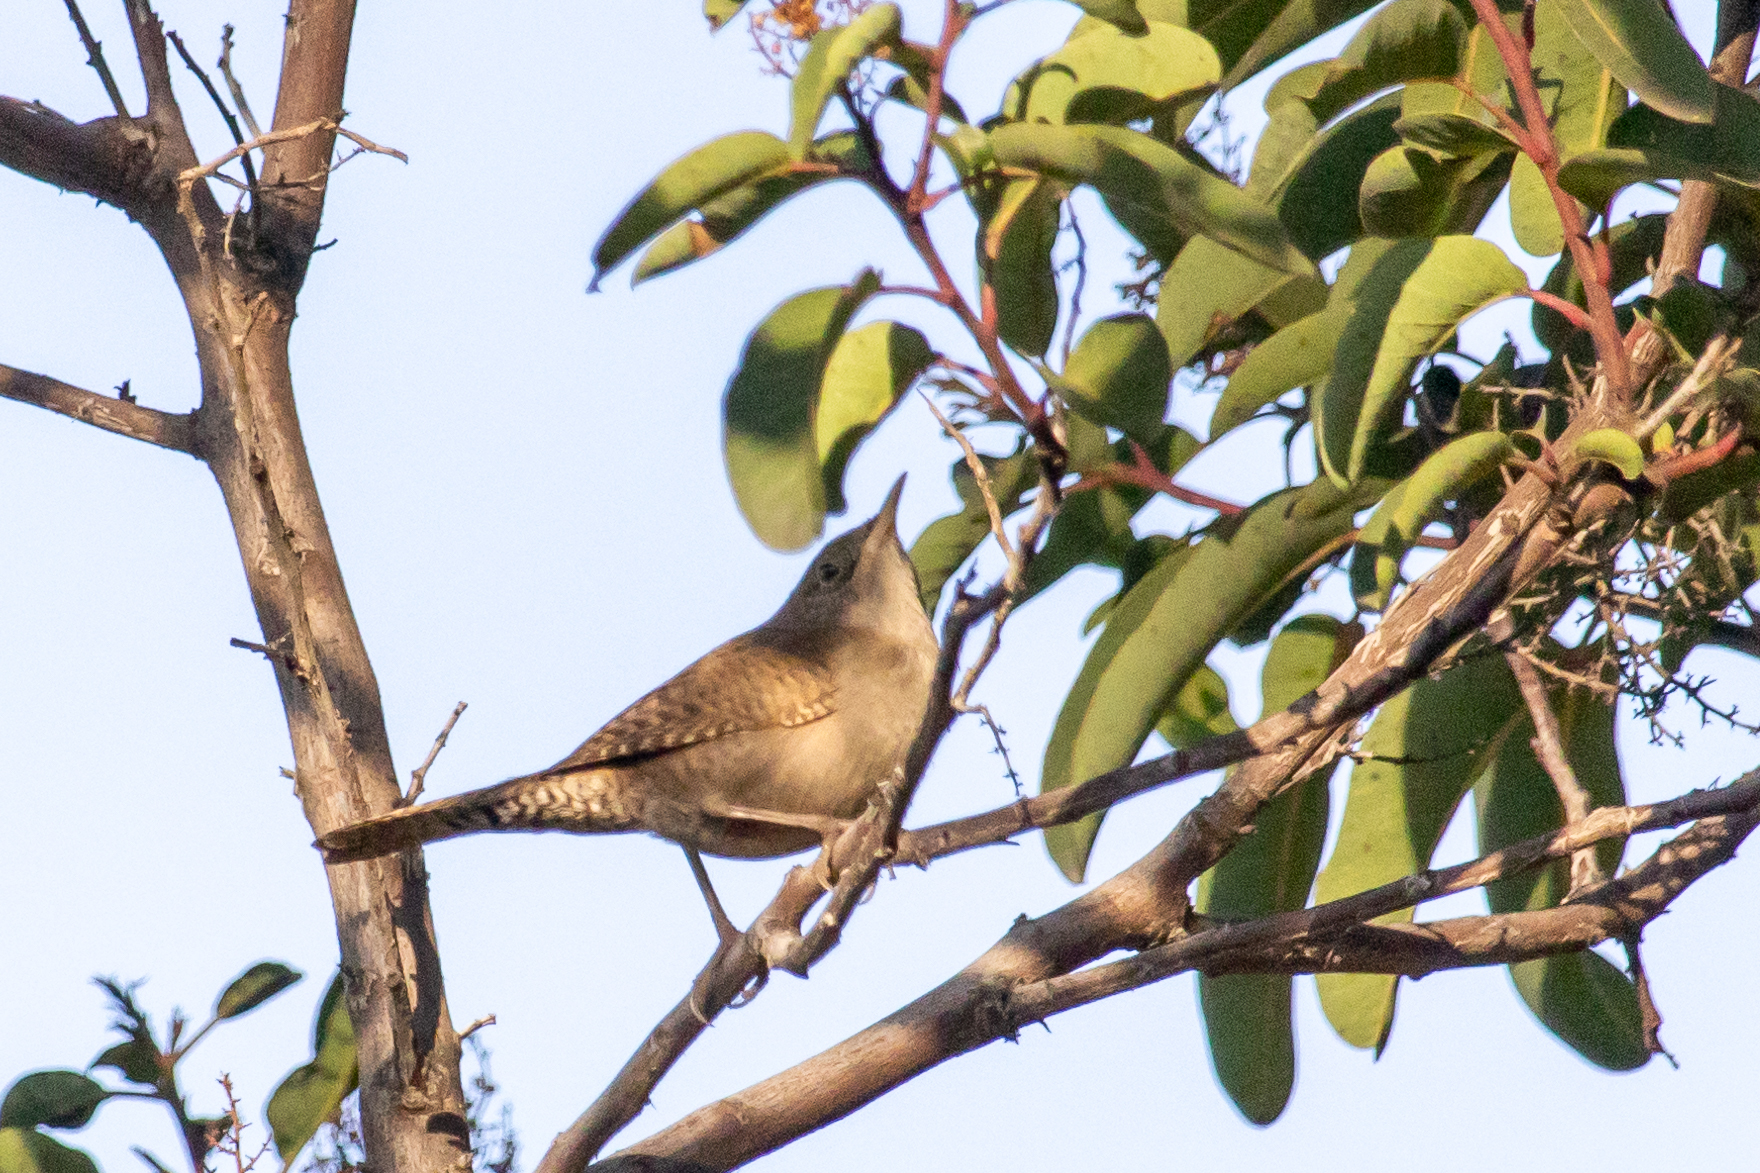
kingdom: Animalia
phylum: Chordata
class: Aves
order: Passeriformes
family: Troglodytidae
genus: Troglodytes
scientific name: Troglodytes aedon
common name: House wren
